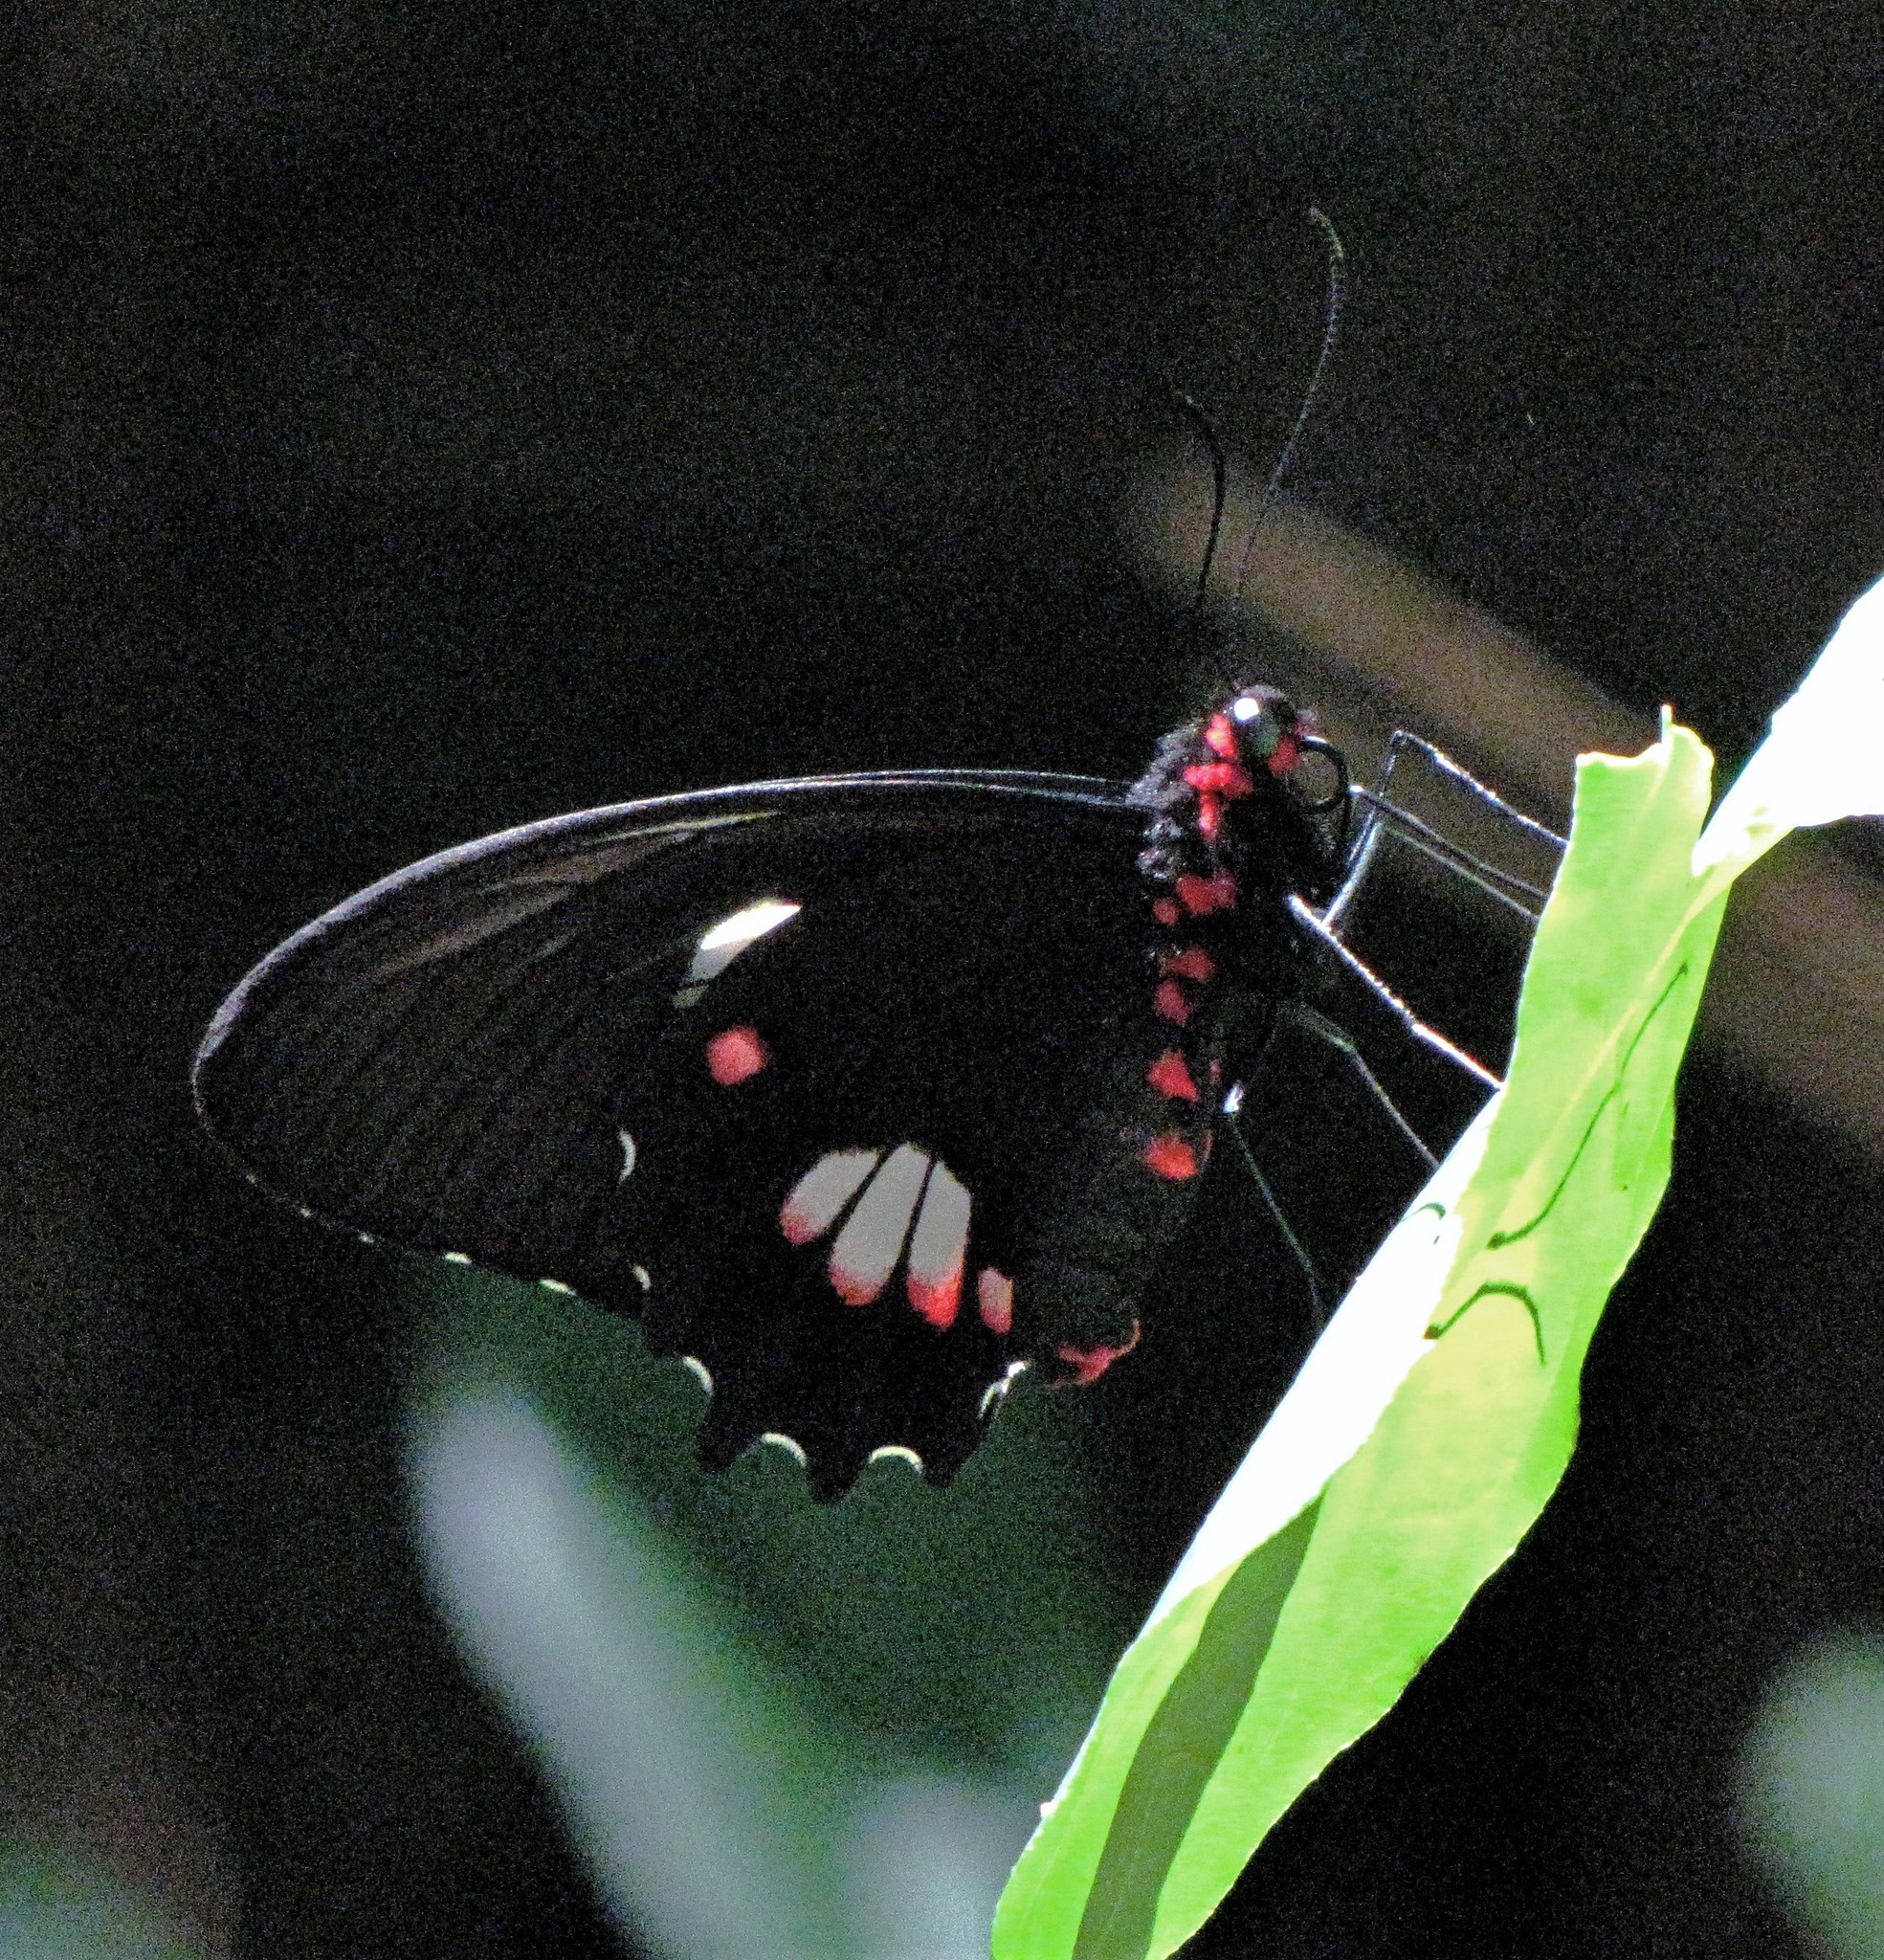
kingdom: Animalia
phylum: Arthropoda
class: Insecta
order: Lepidoptera
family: Papilionidae
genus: Parides
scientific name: Parides anchises
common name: Cattle heart
